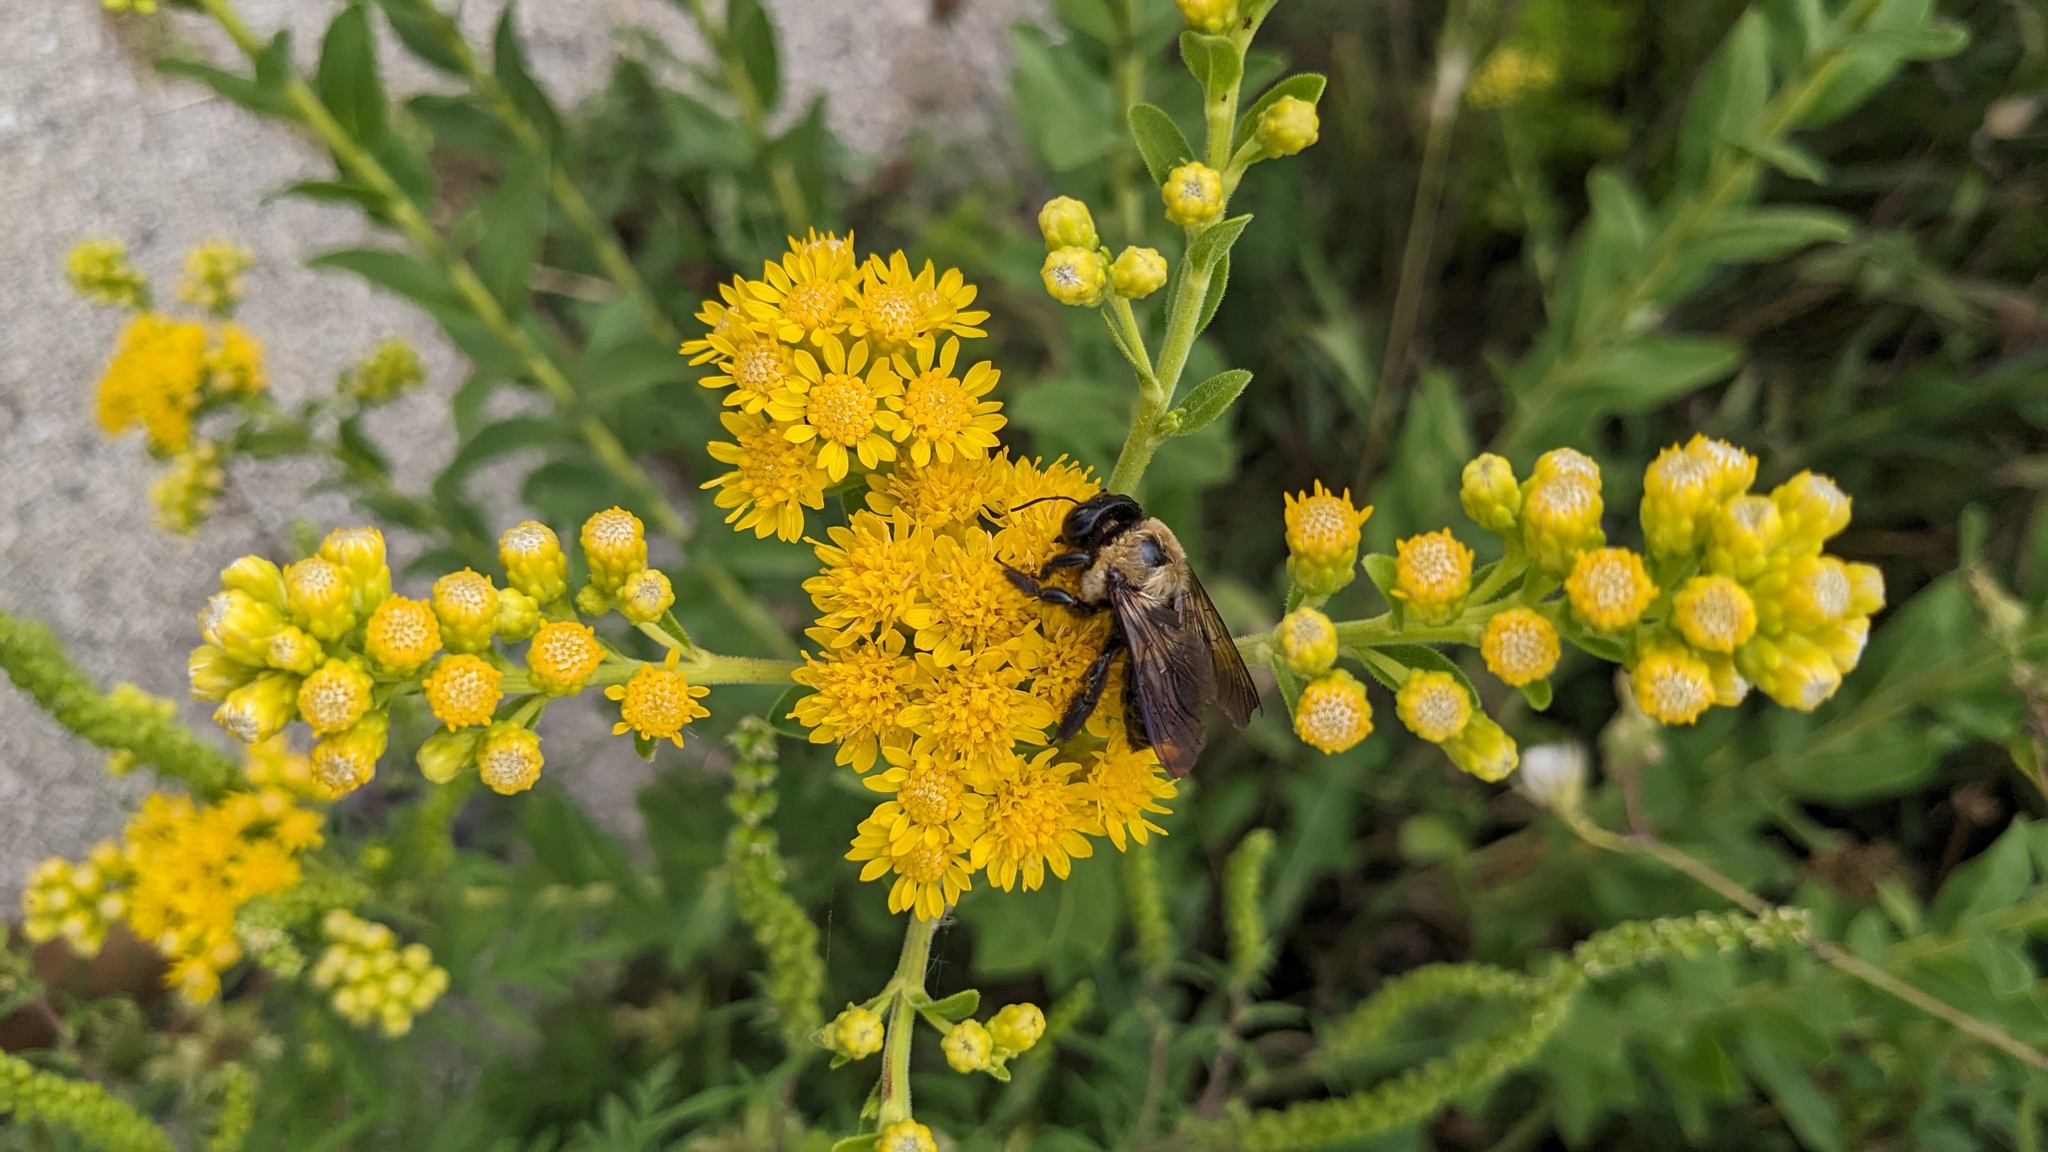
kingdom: Animalia
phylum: Arthropoda
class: Insecta
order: Hymenoptera
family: Apidae
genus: Xylocopa
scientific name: Xylocopa virginica
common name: Carpenter bee
